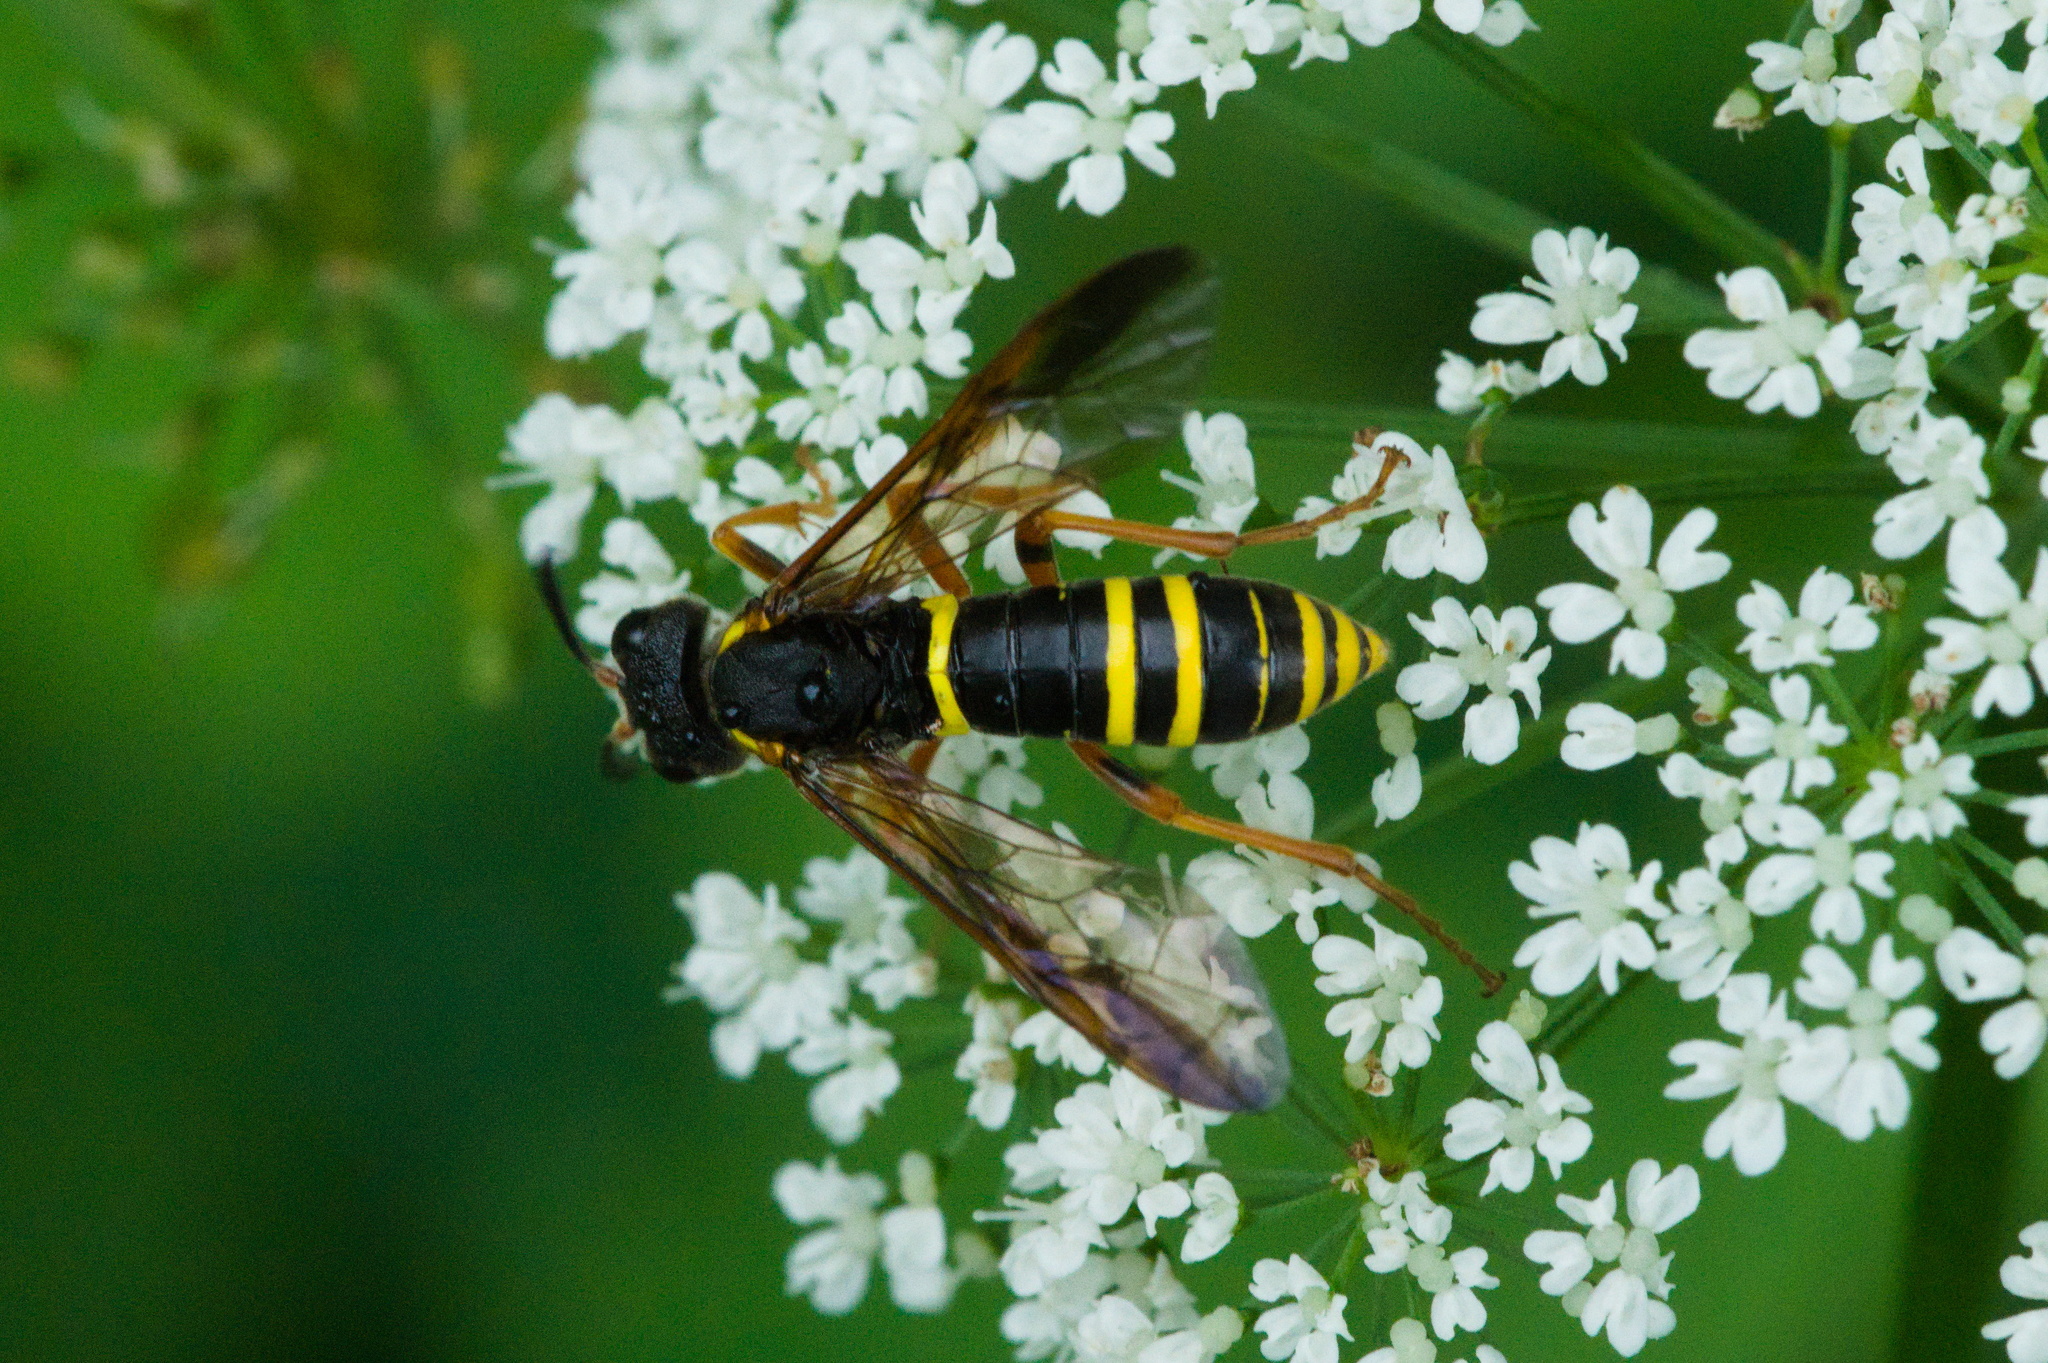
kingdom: Animalia
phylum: Arthropoda
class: Insecta
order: Hymenoptera
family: Tenthredinidae
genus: Tenthredo
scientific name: Tenthredo vespa
